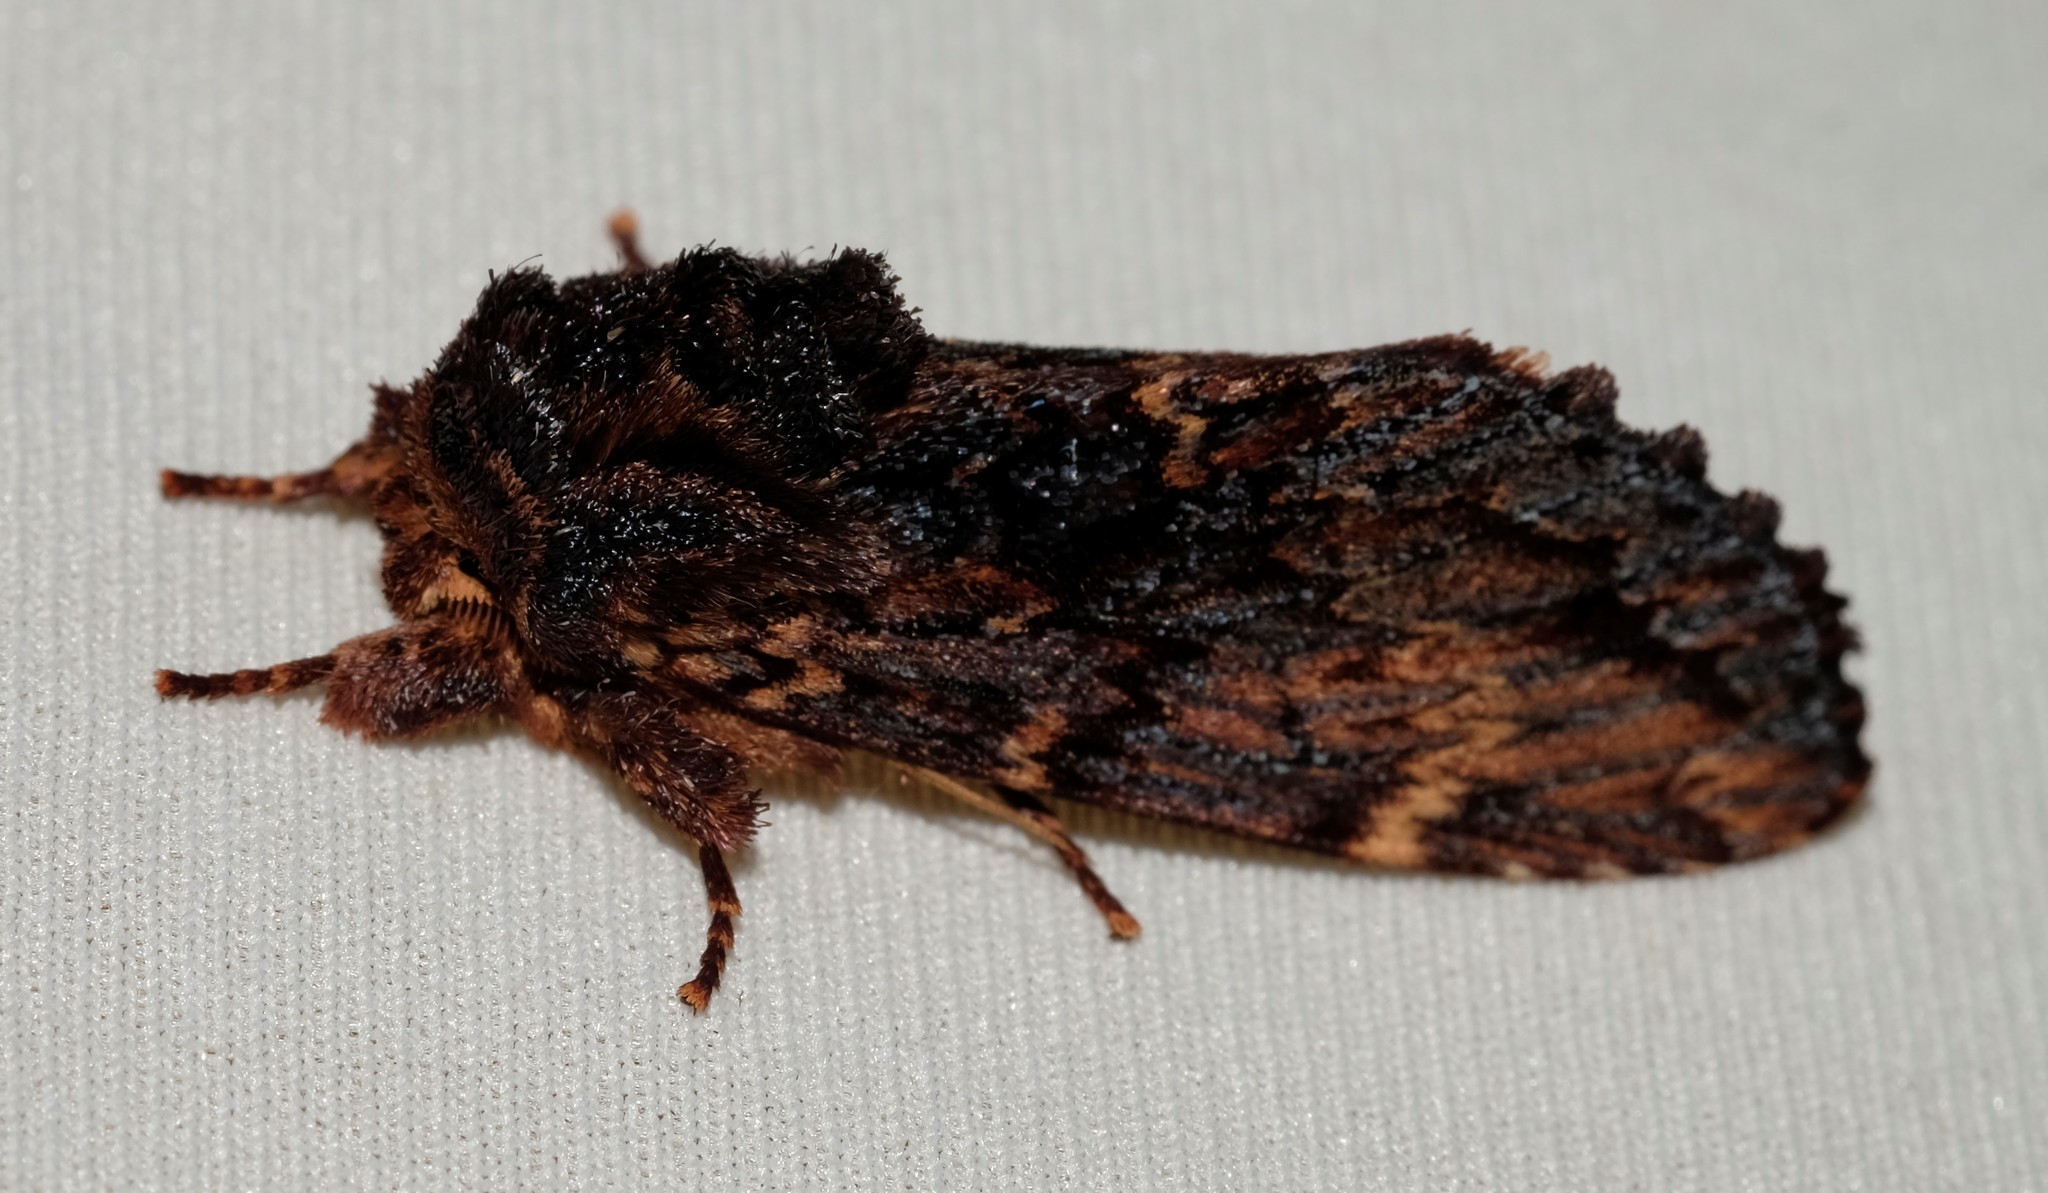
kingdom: Animalia
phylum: Arthropoda
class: Insecta
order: Lepidoptera
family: Notodontidae
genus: Sorama
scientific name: Sorama bicolor
